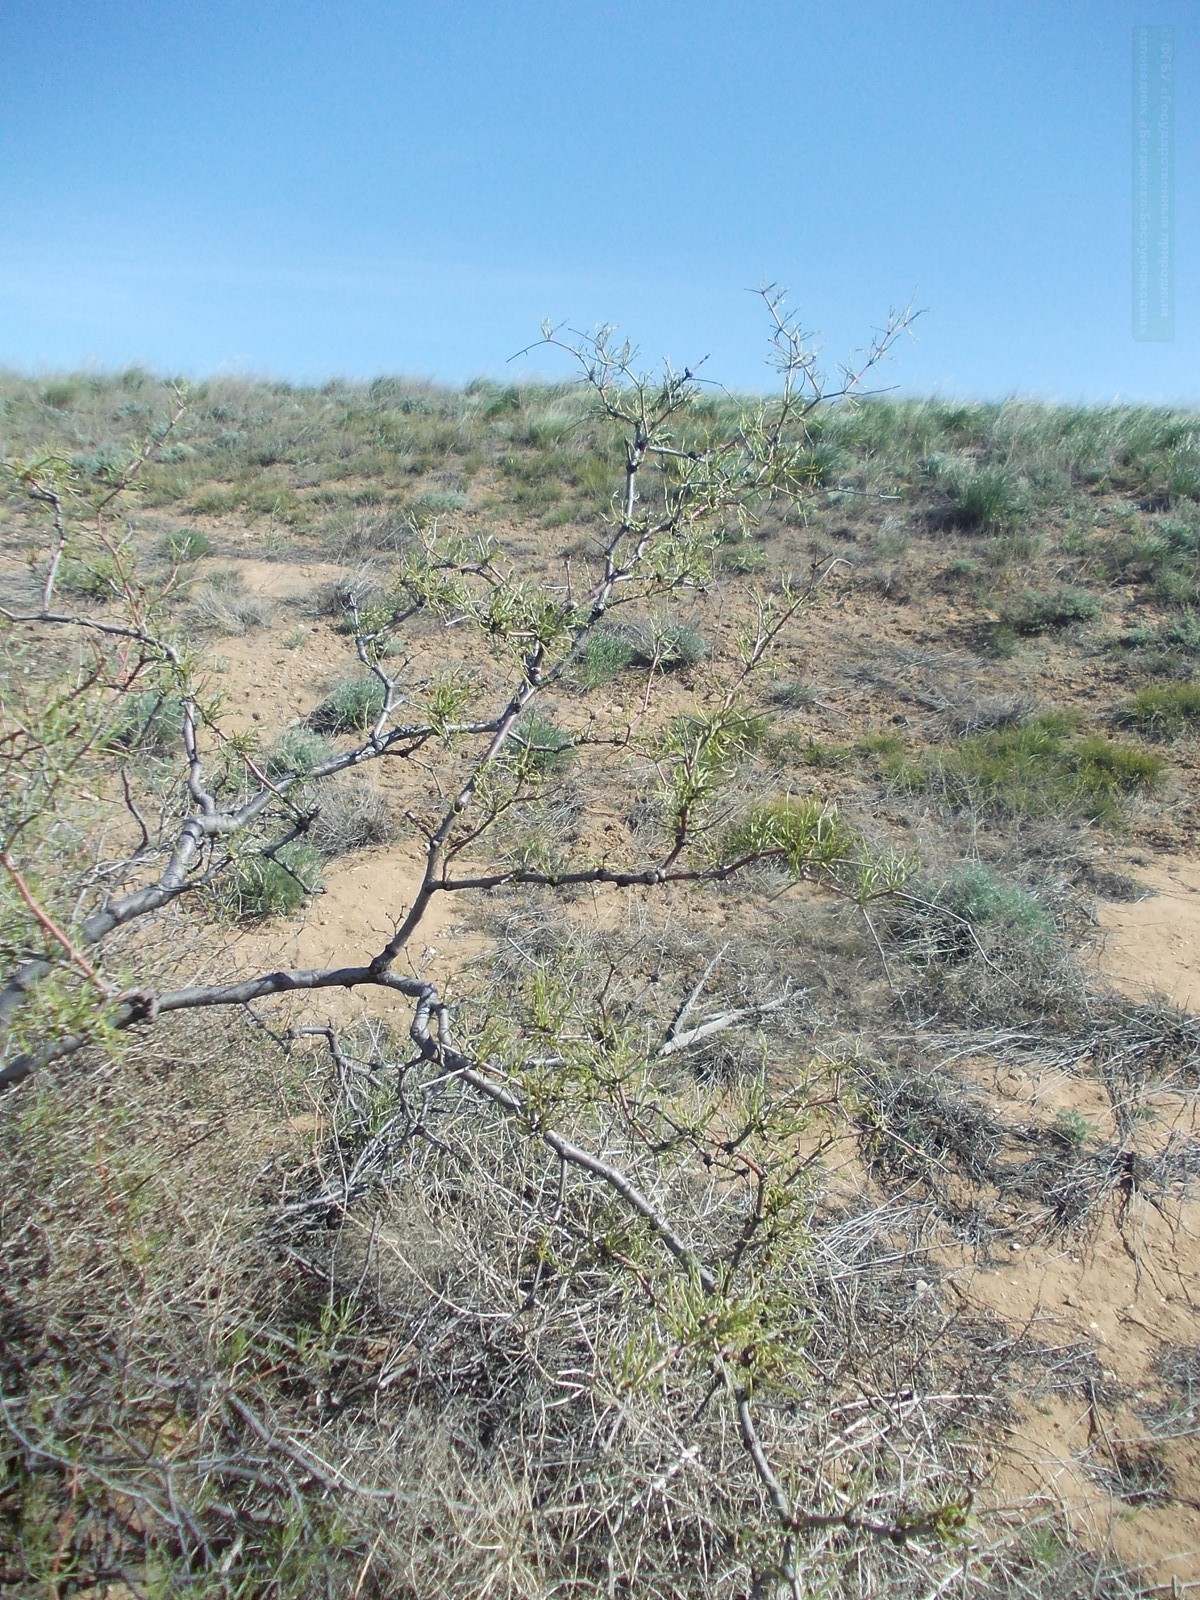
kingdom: Plantae
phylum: Tracheophyta
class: Magnoliopsida
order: Caryophyllales
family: Polygonaceae
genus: Calligonum
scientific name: Calligonum aphyllum
